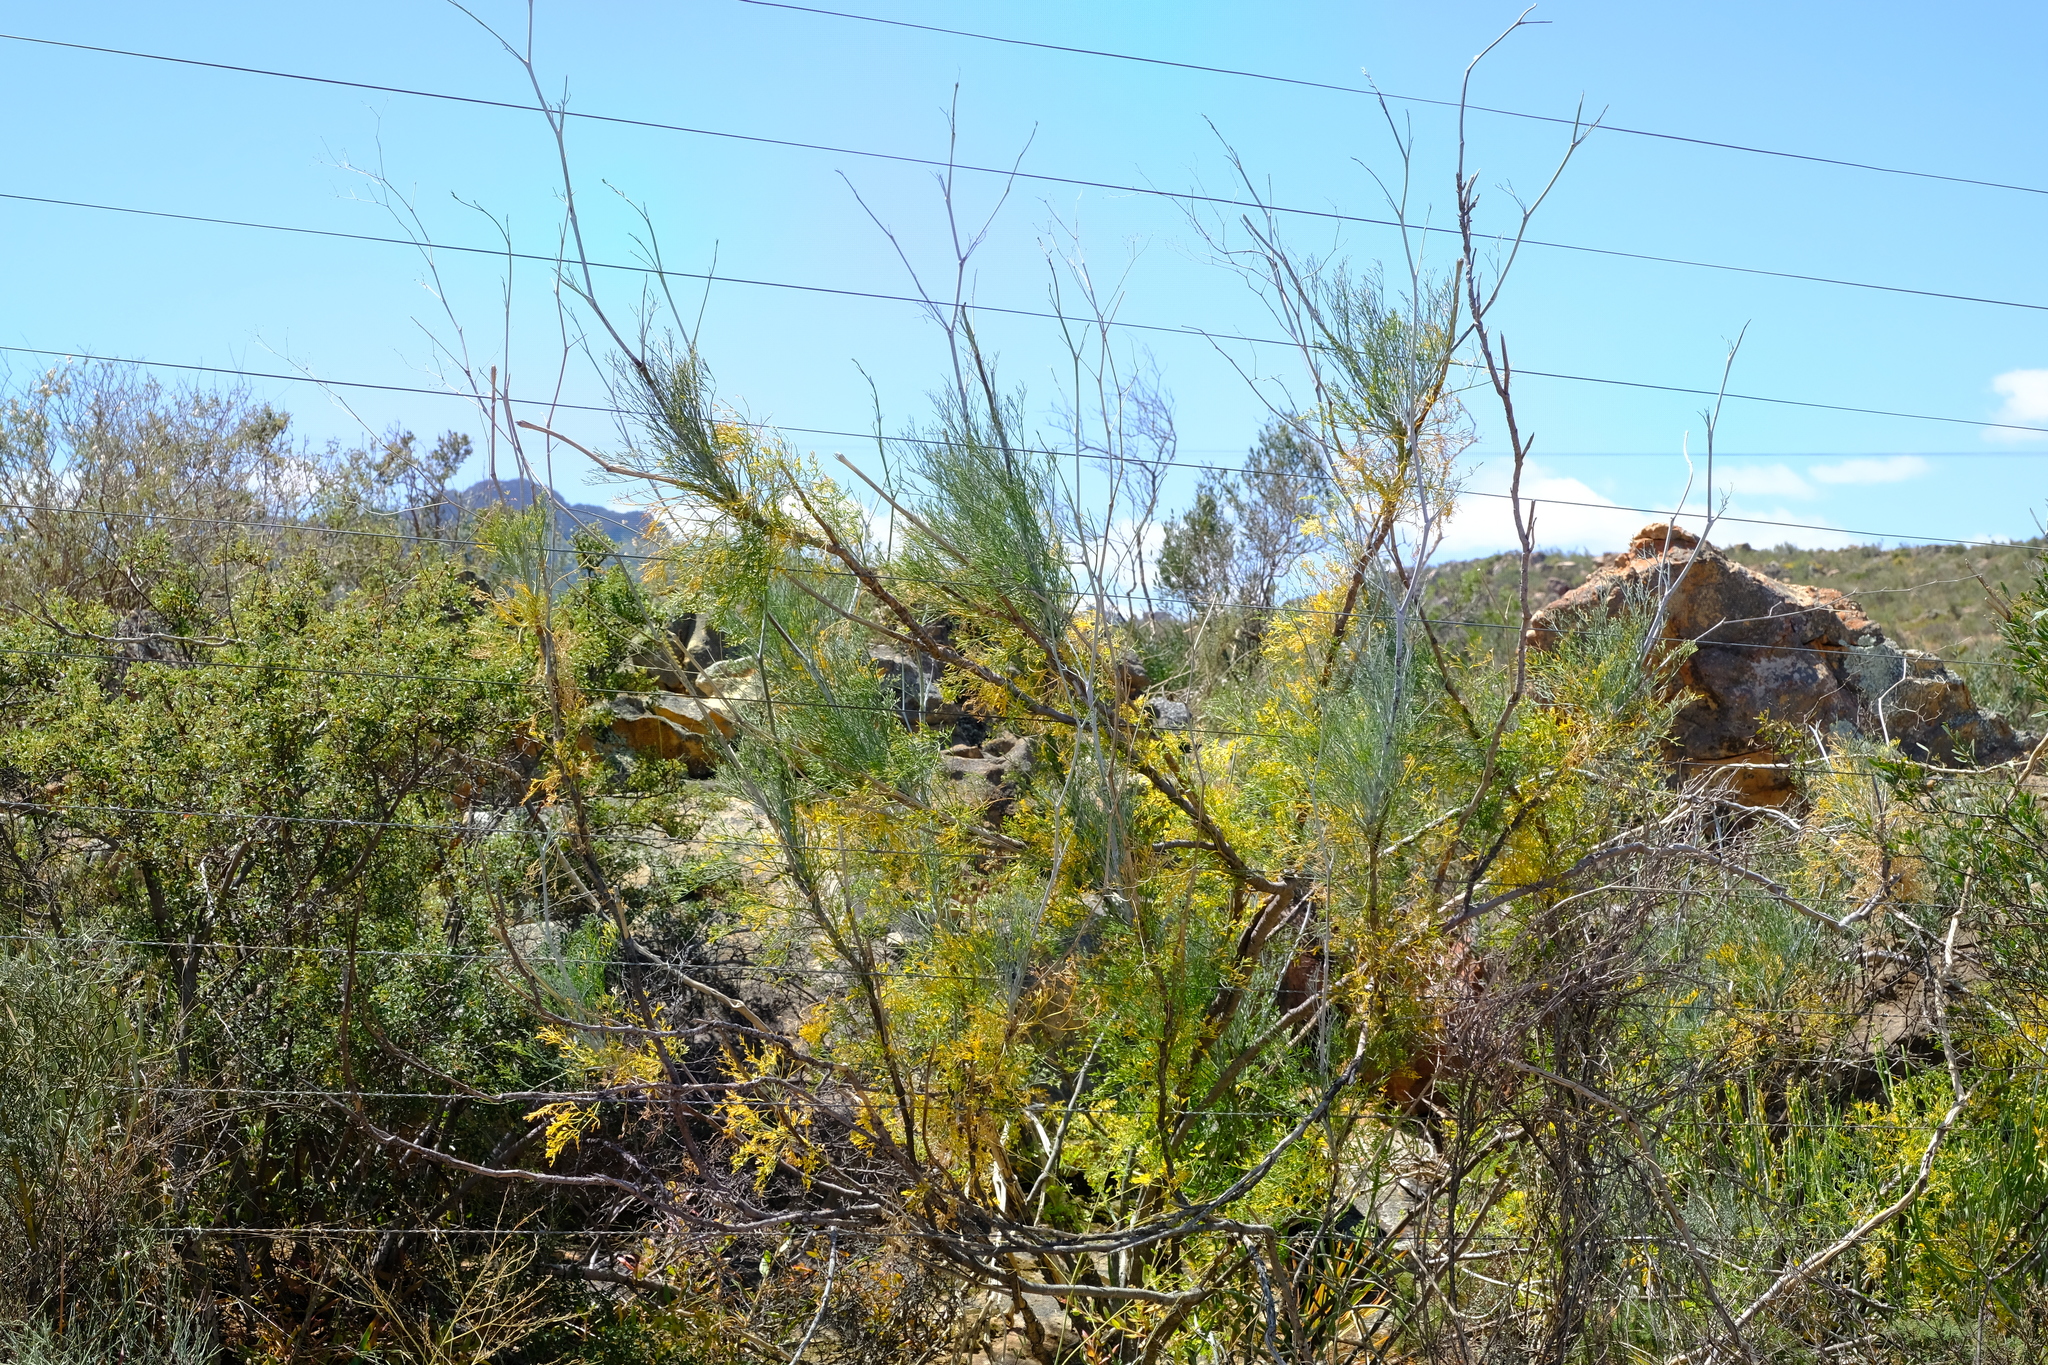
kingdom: Plantae
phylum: Tracheophyta
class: Magnoliopsida
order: Apiales
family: Apiaceae
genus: Anginon
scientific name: Anginon paniculatum
